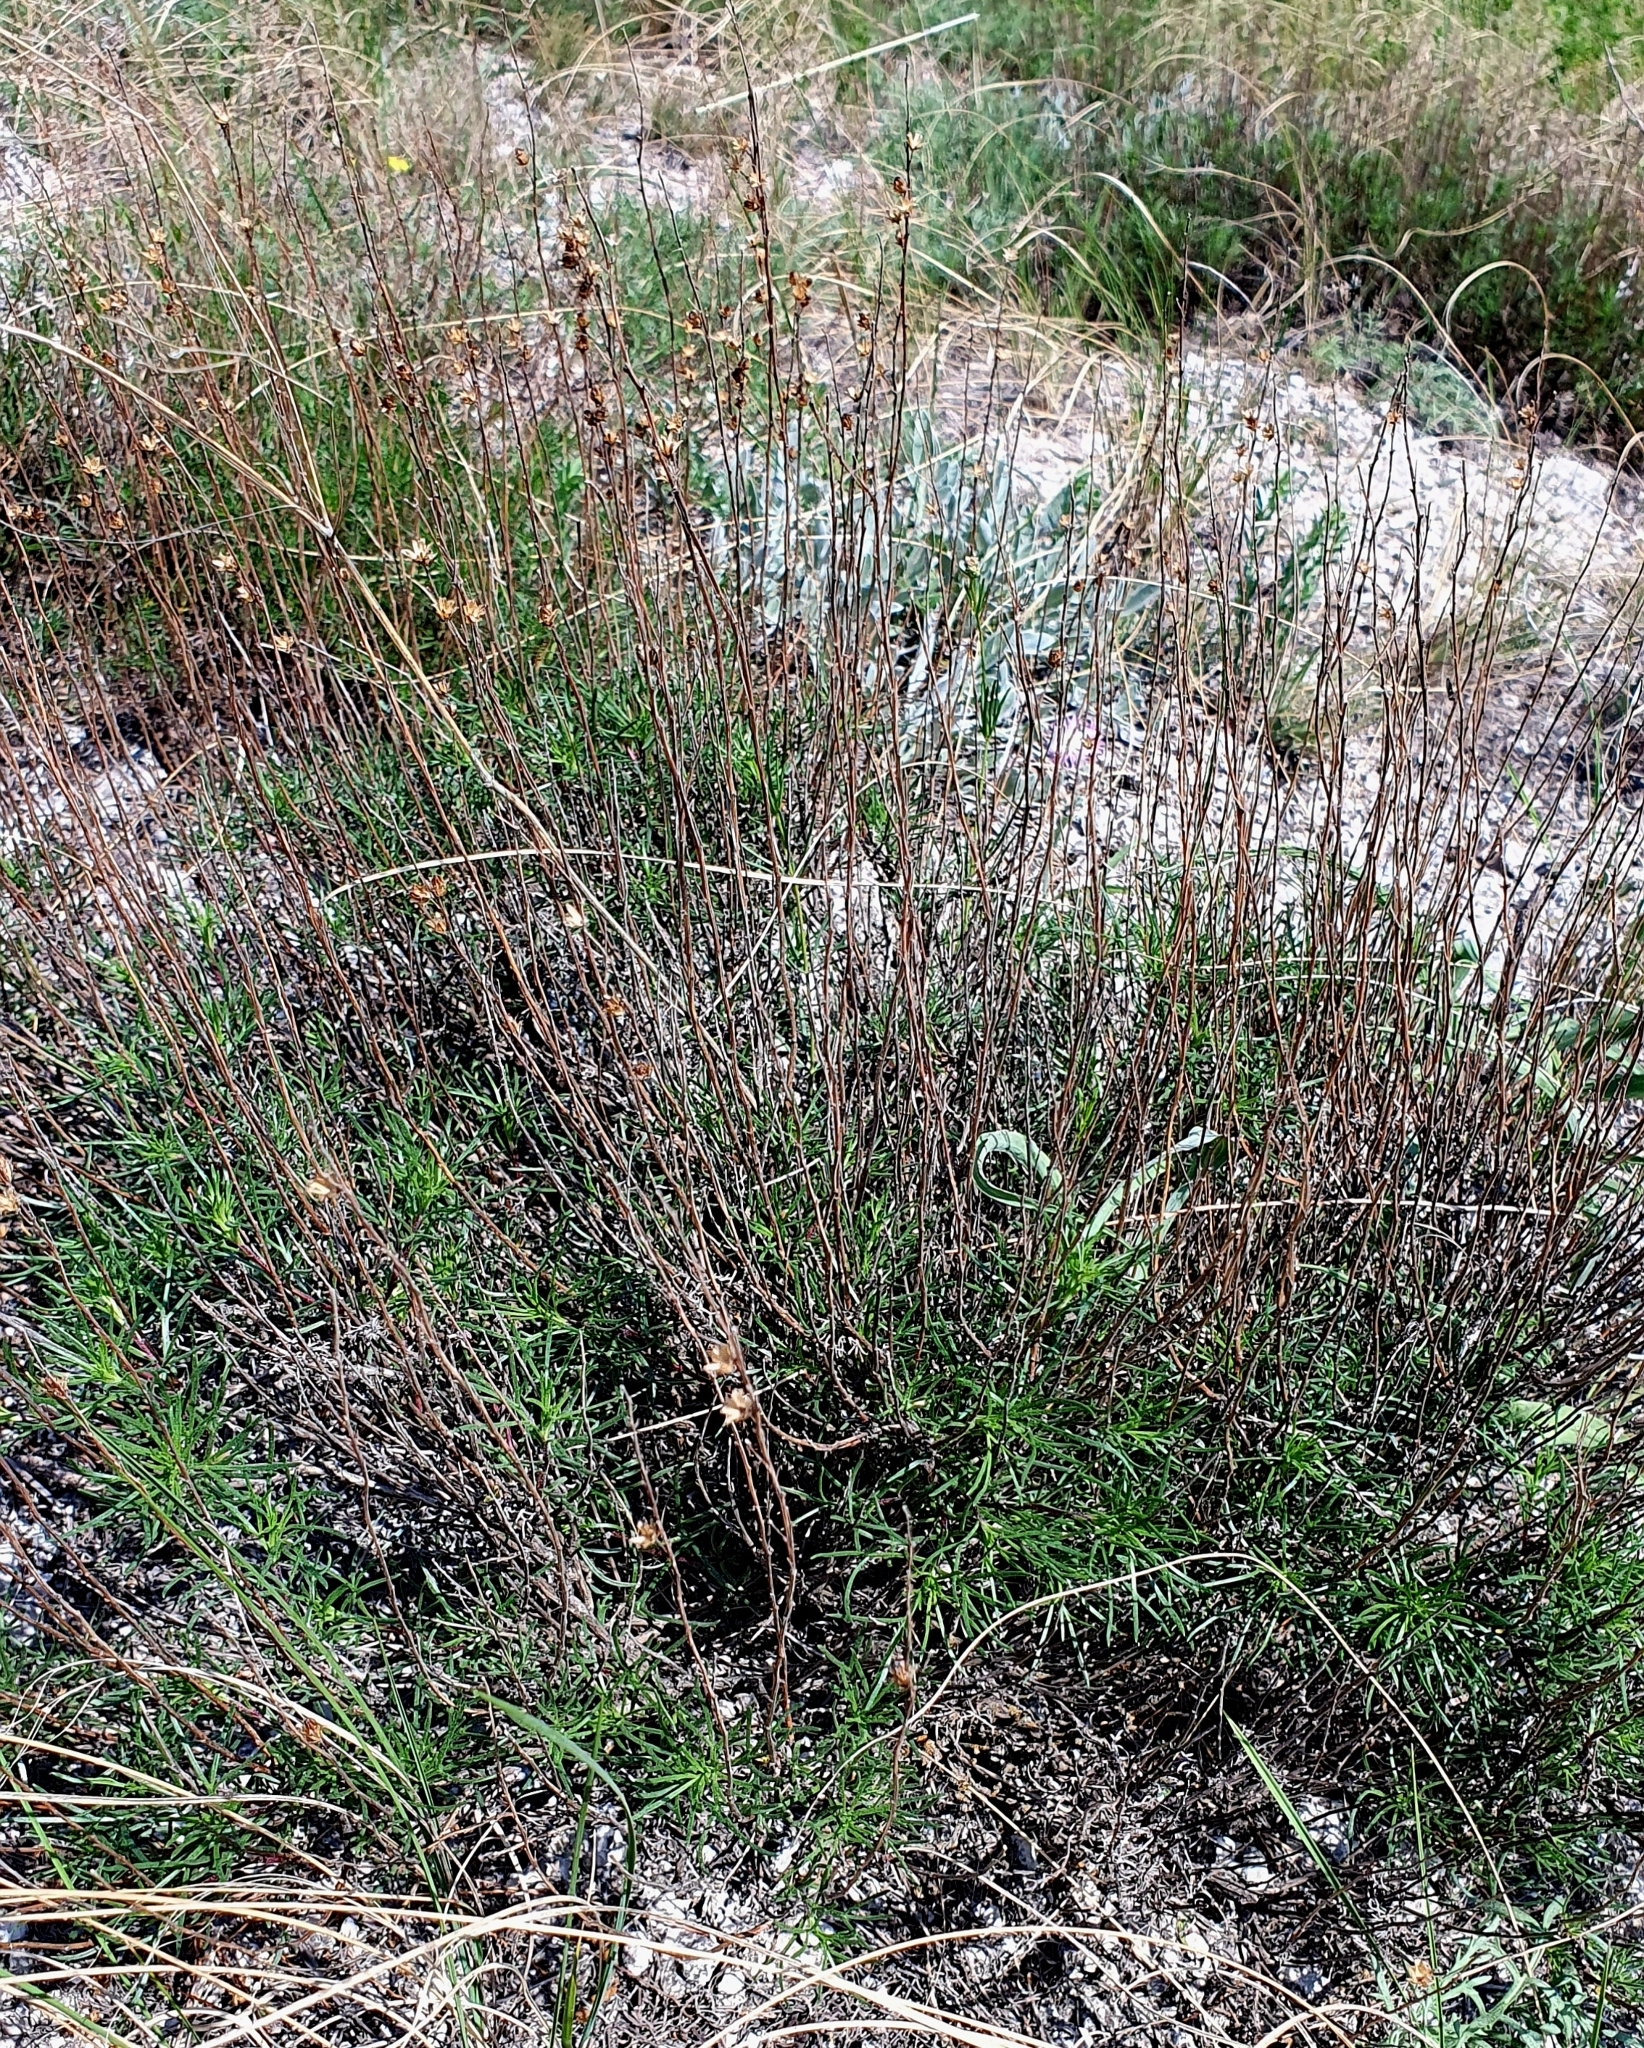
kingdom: Plantae
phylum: Tracheophyta
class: Magnoliopsida
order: Asterales
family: Asteraceae
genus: Artemisia
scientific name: Artemisia salsoloides
